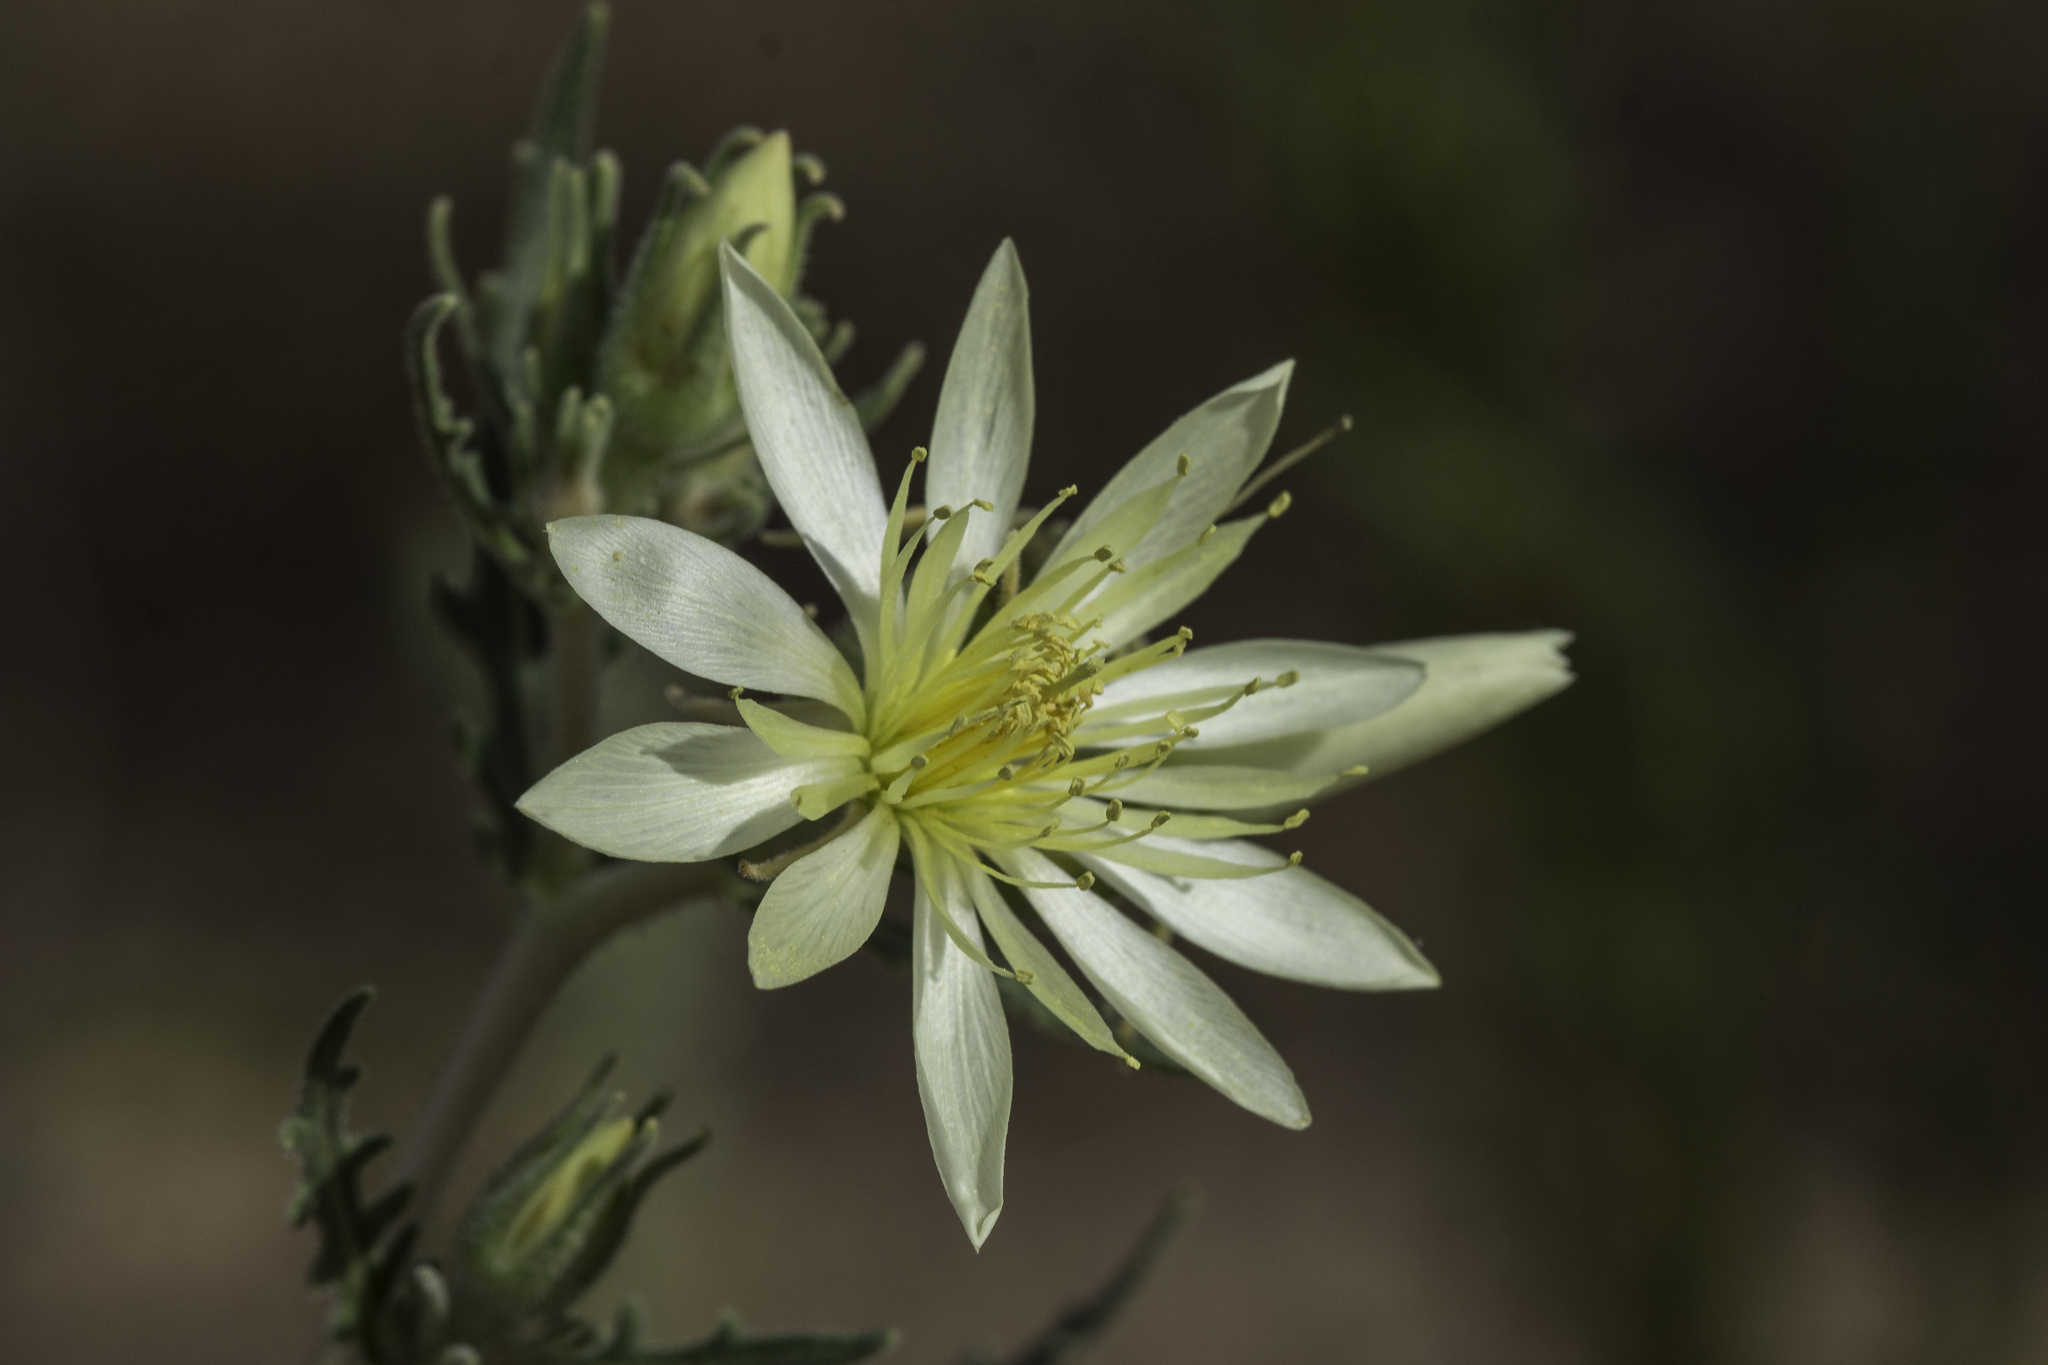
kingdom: Plantae
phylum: Tracheophyta
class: Magnoliopsida
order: Cornales
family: Loasaceae
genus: Mentzelia
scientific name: Mentzelia multiflora
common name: Adonis blazingstar
